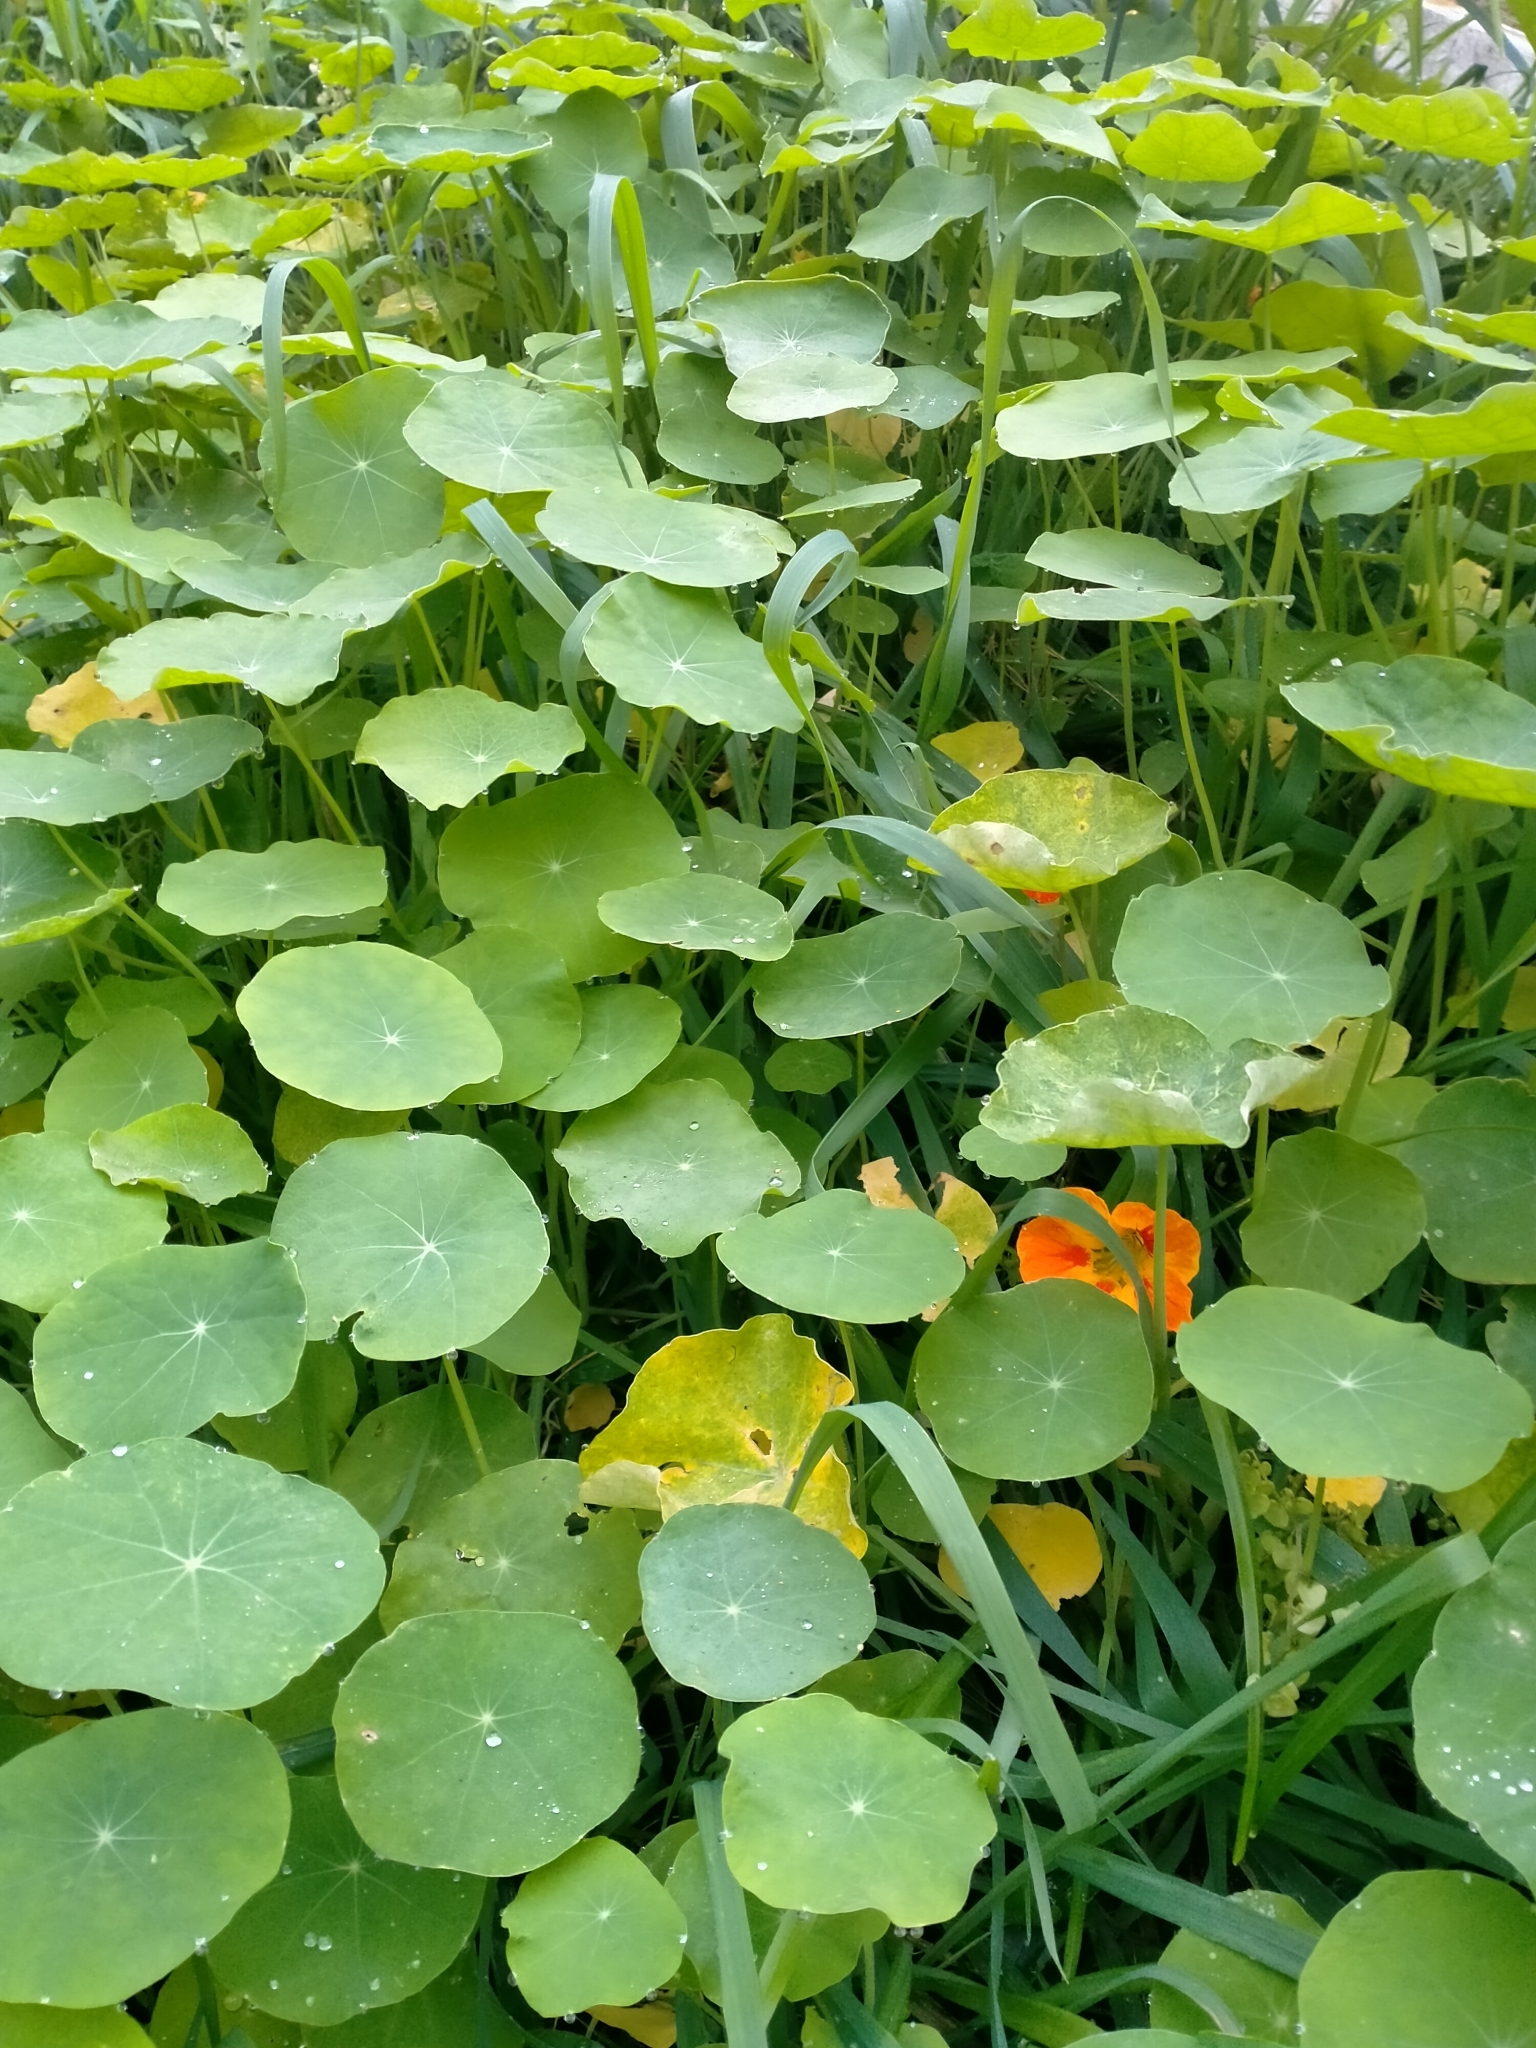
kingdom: Plantae
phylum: Tracheophyta
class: Magnoliopsida
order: Brassicales
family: Tropaeolaceae
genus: Tropaeolum
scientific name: Tropaeolum majus
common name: Nasturtium
